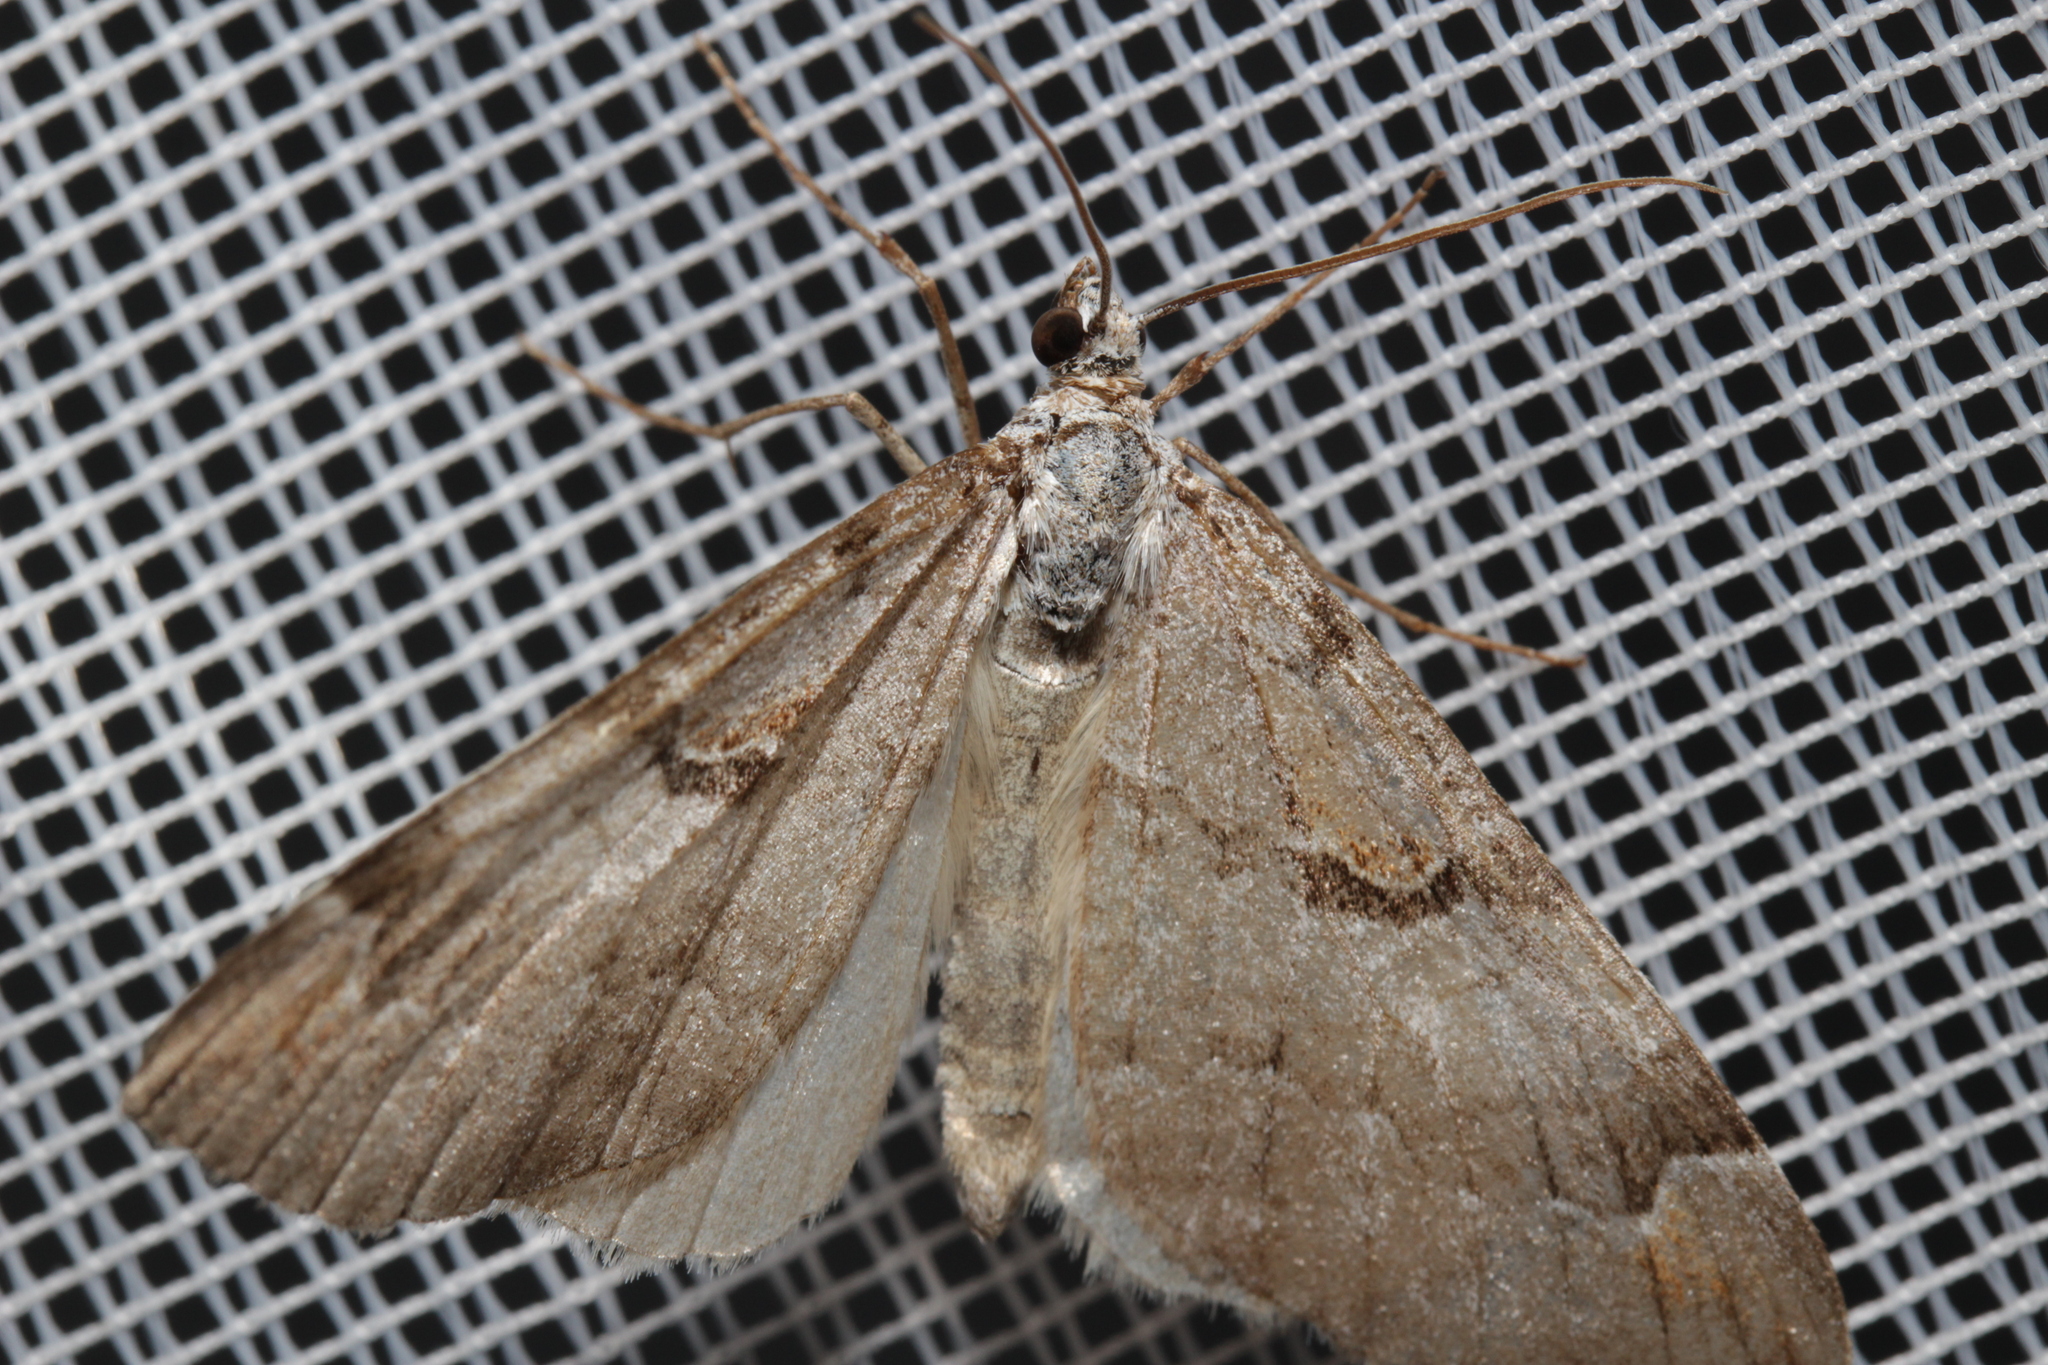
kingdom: Animalia
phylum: Arthropoda
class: Insecta
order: Lepidoptera
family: Geometridae
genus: Aplocera
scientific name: Aplocera praeformata
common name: Purple treble-bar
